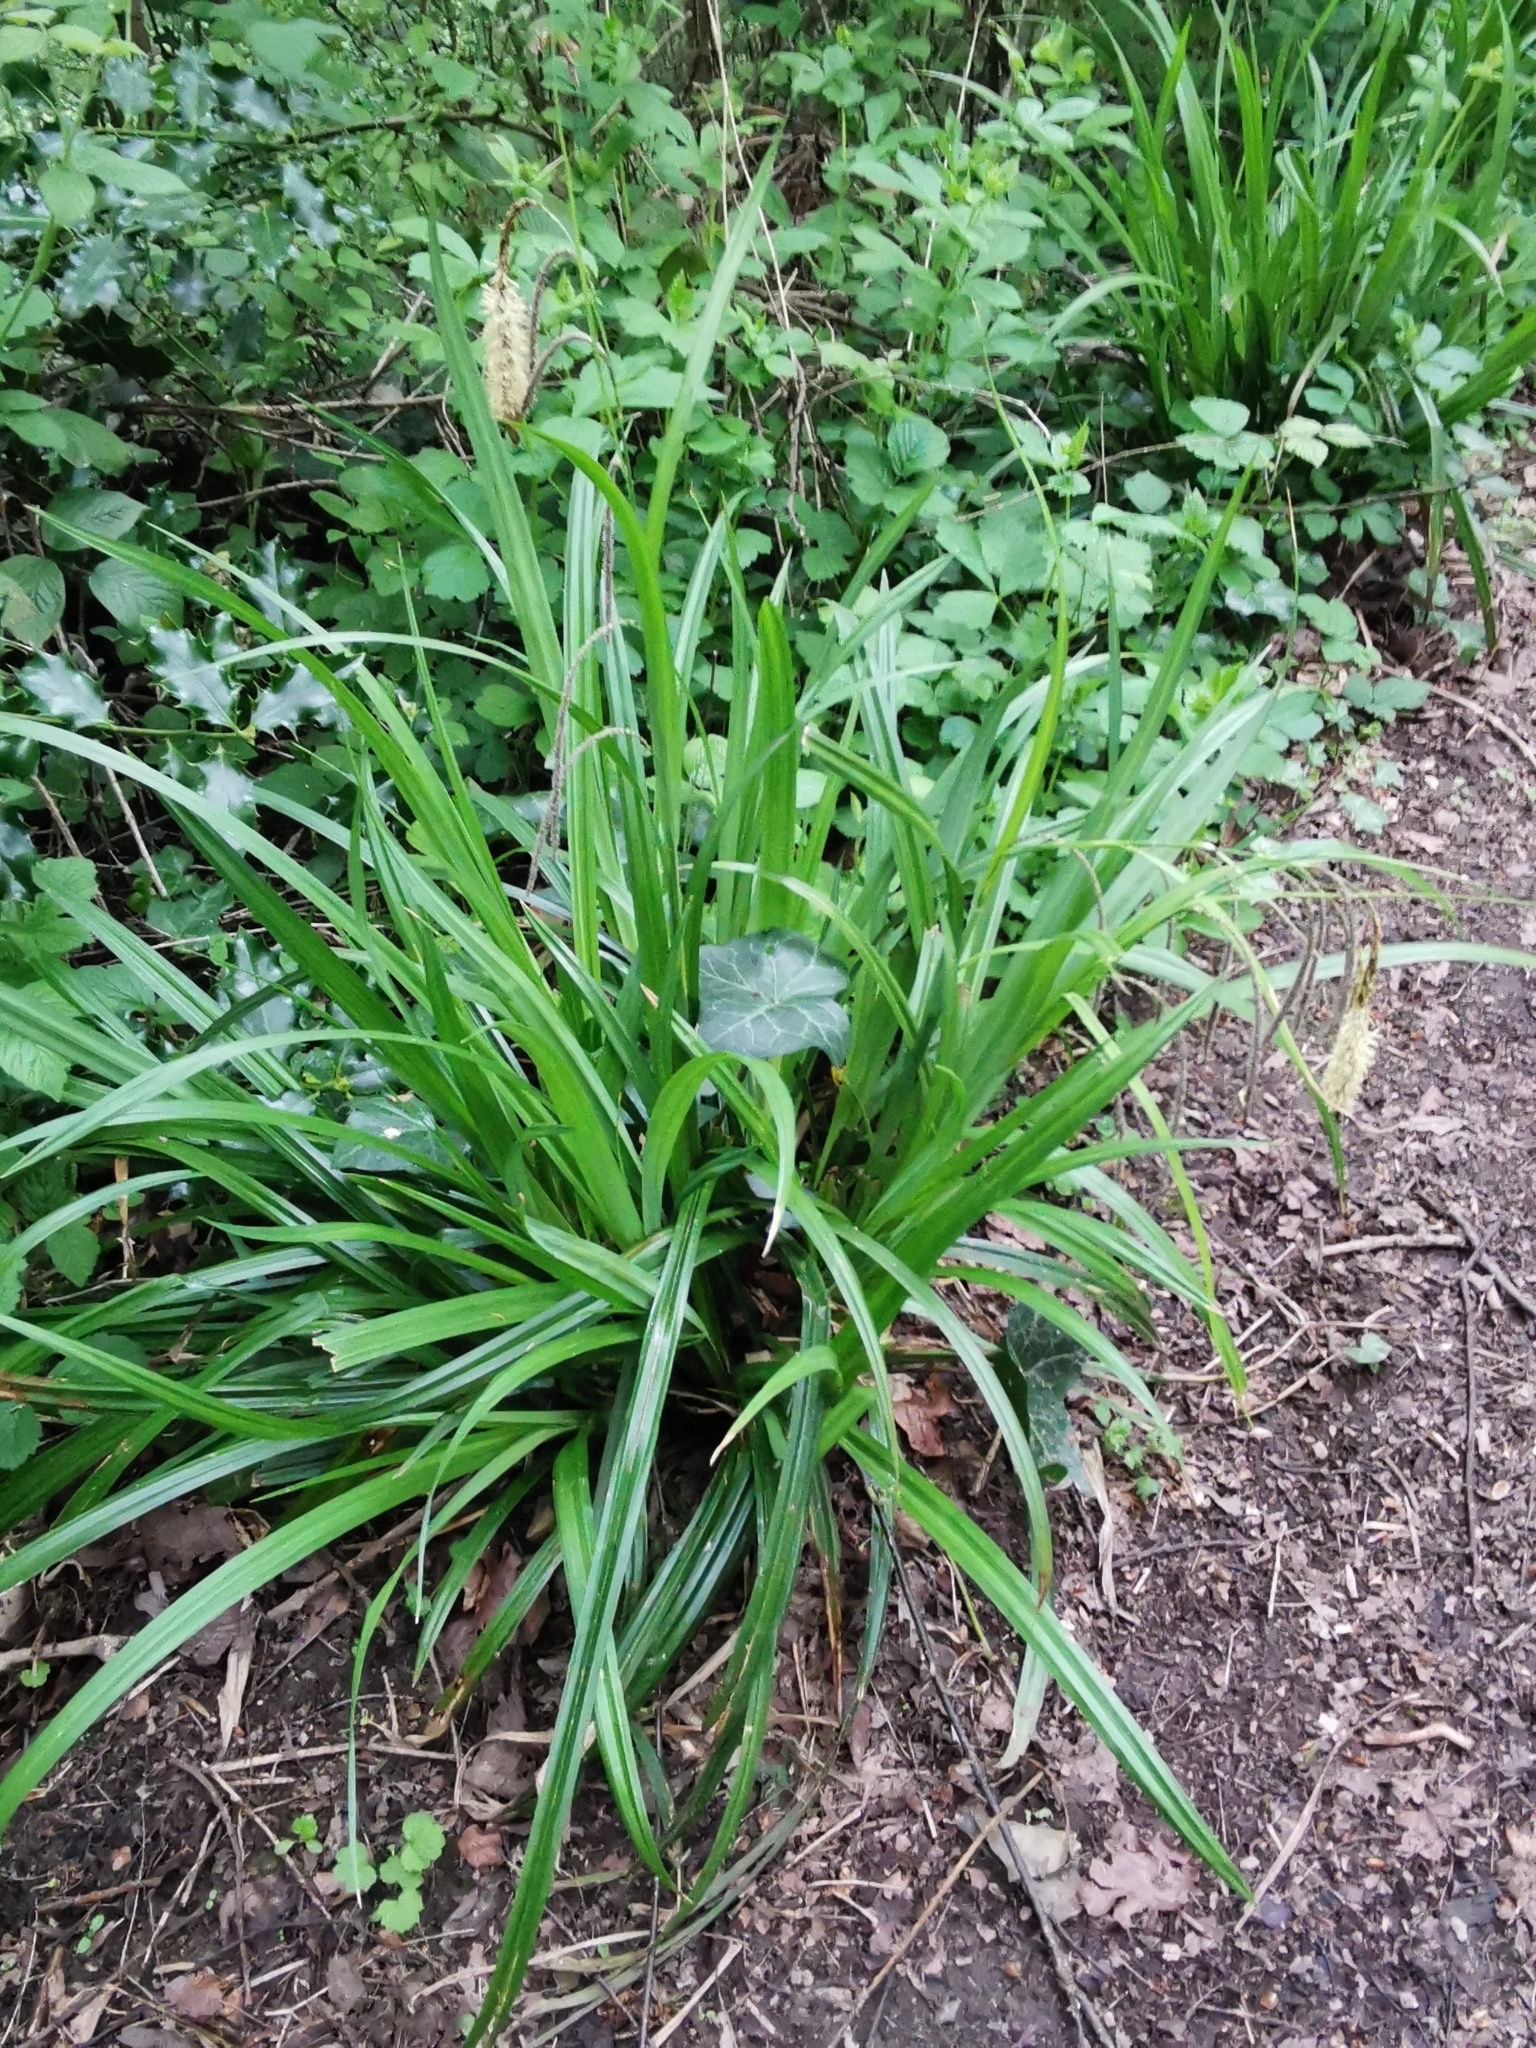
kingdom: Plantae
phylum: Tracheophyta
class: Liliopsida
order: Poales
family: Cyperaceae
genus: Carex
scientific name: Carex pendula
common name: Pendulous sedge
